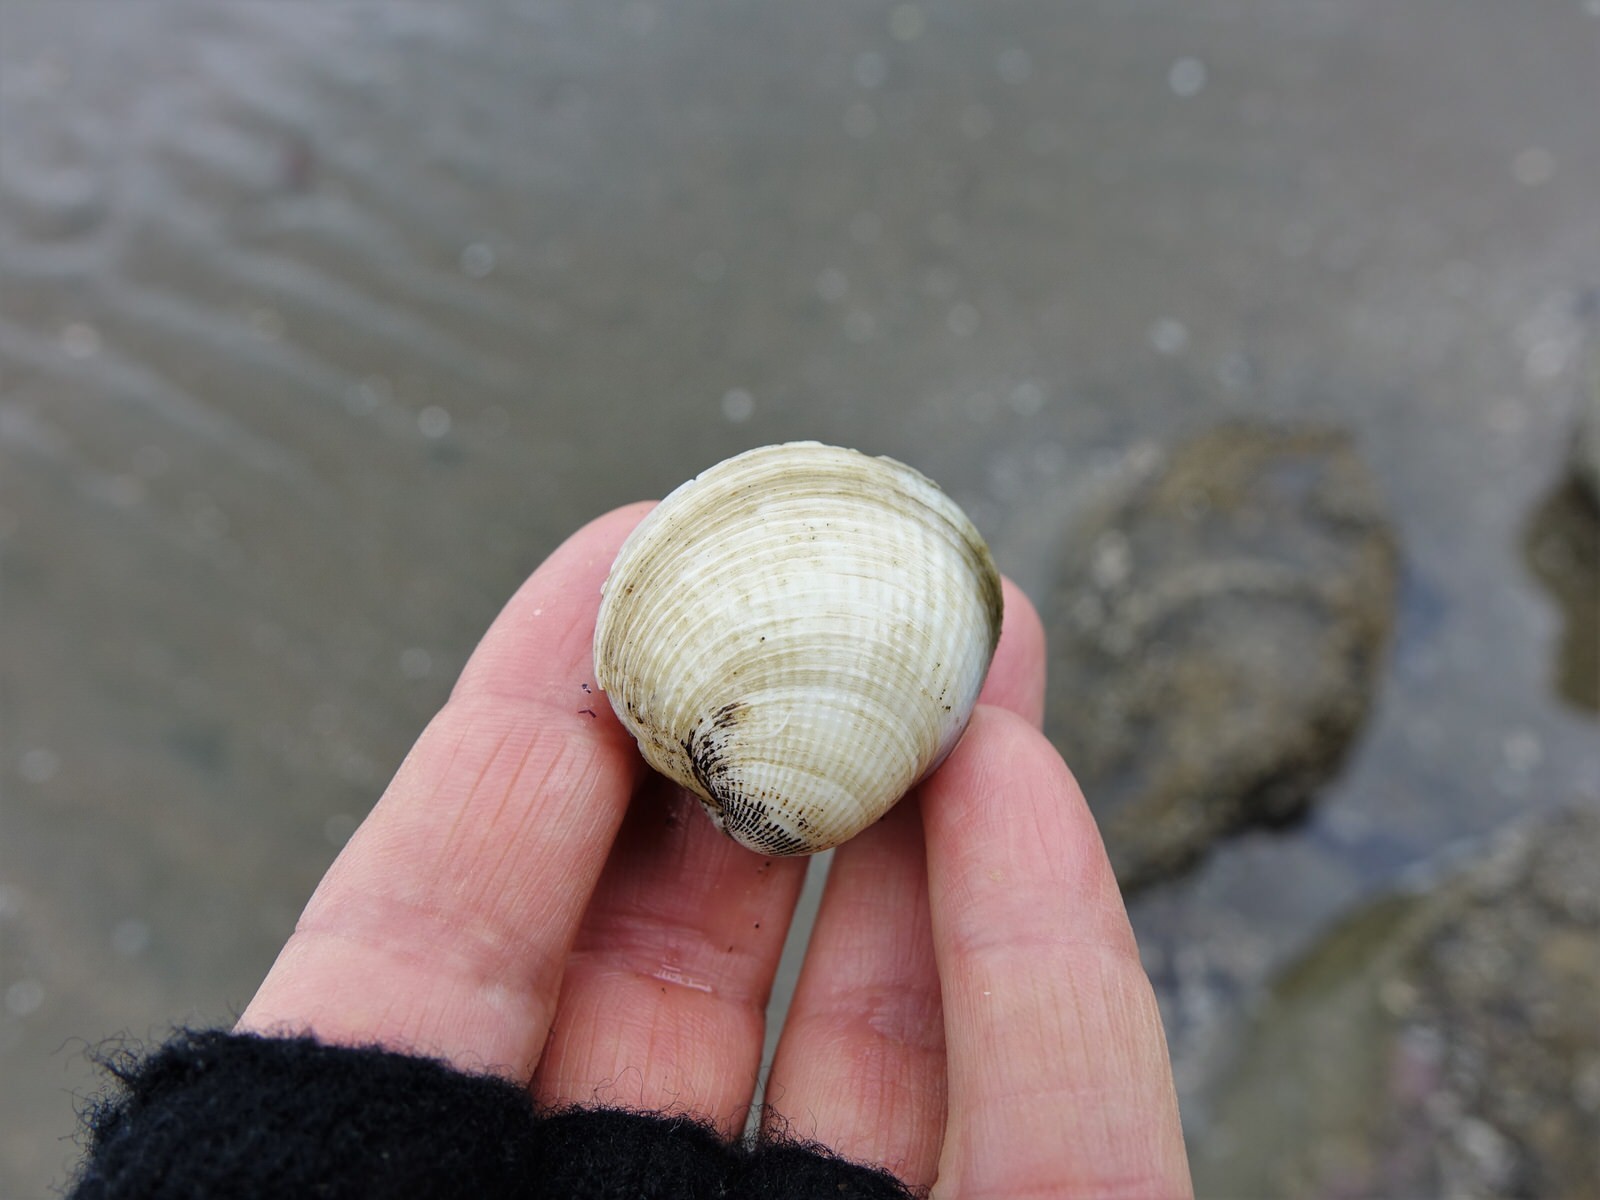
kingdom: Animalia
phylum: Mollusca
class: Bivalvia
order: Venerida
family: Veneridae
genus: Austrovenus
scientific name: Austrovenus stutchburyi
